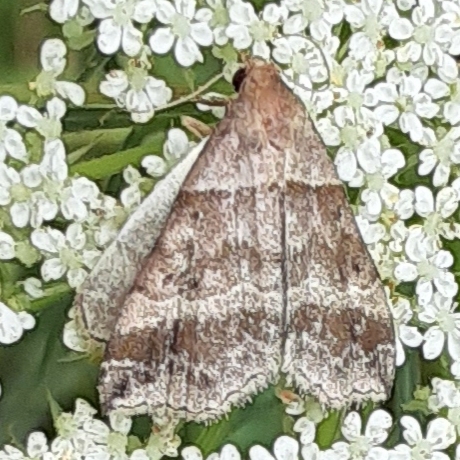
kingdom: Animalia
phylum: Arthropoda
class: Insecta
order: Lepidoptera
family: Erebidae
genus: Phaeolita
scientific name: Phaeolita pyramusalis
